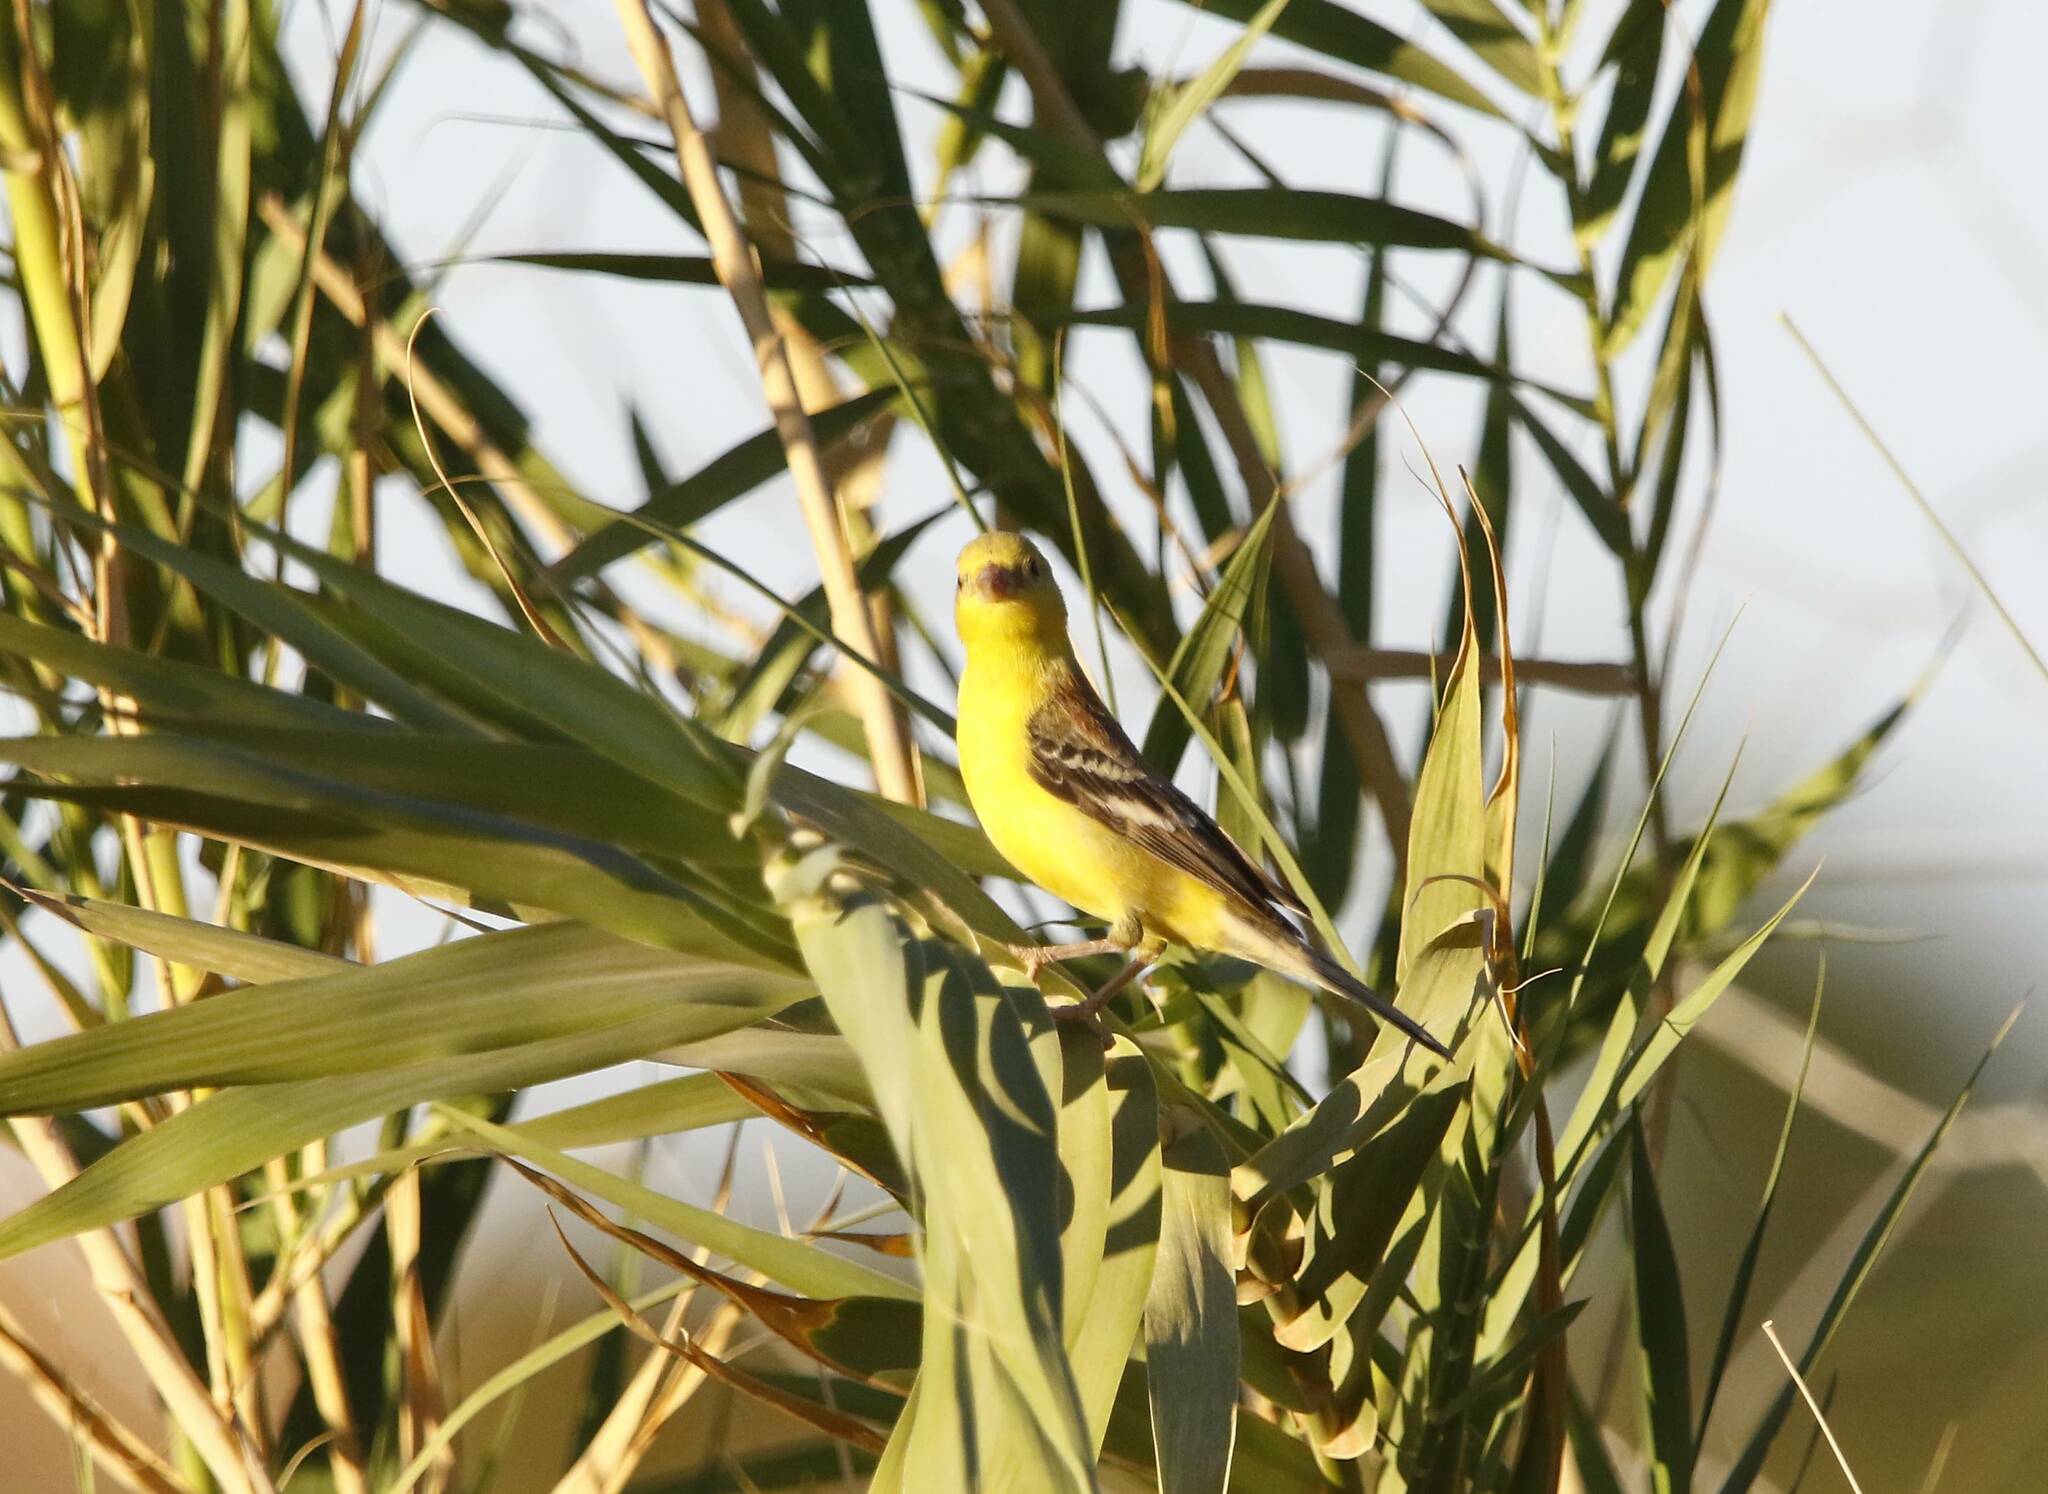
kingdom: Animalia
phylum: Chordata
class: Aves
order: Passeriformes
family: Passeridae
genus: Passer
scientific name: Passer luteus
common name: Sudan golden sparrow
